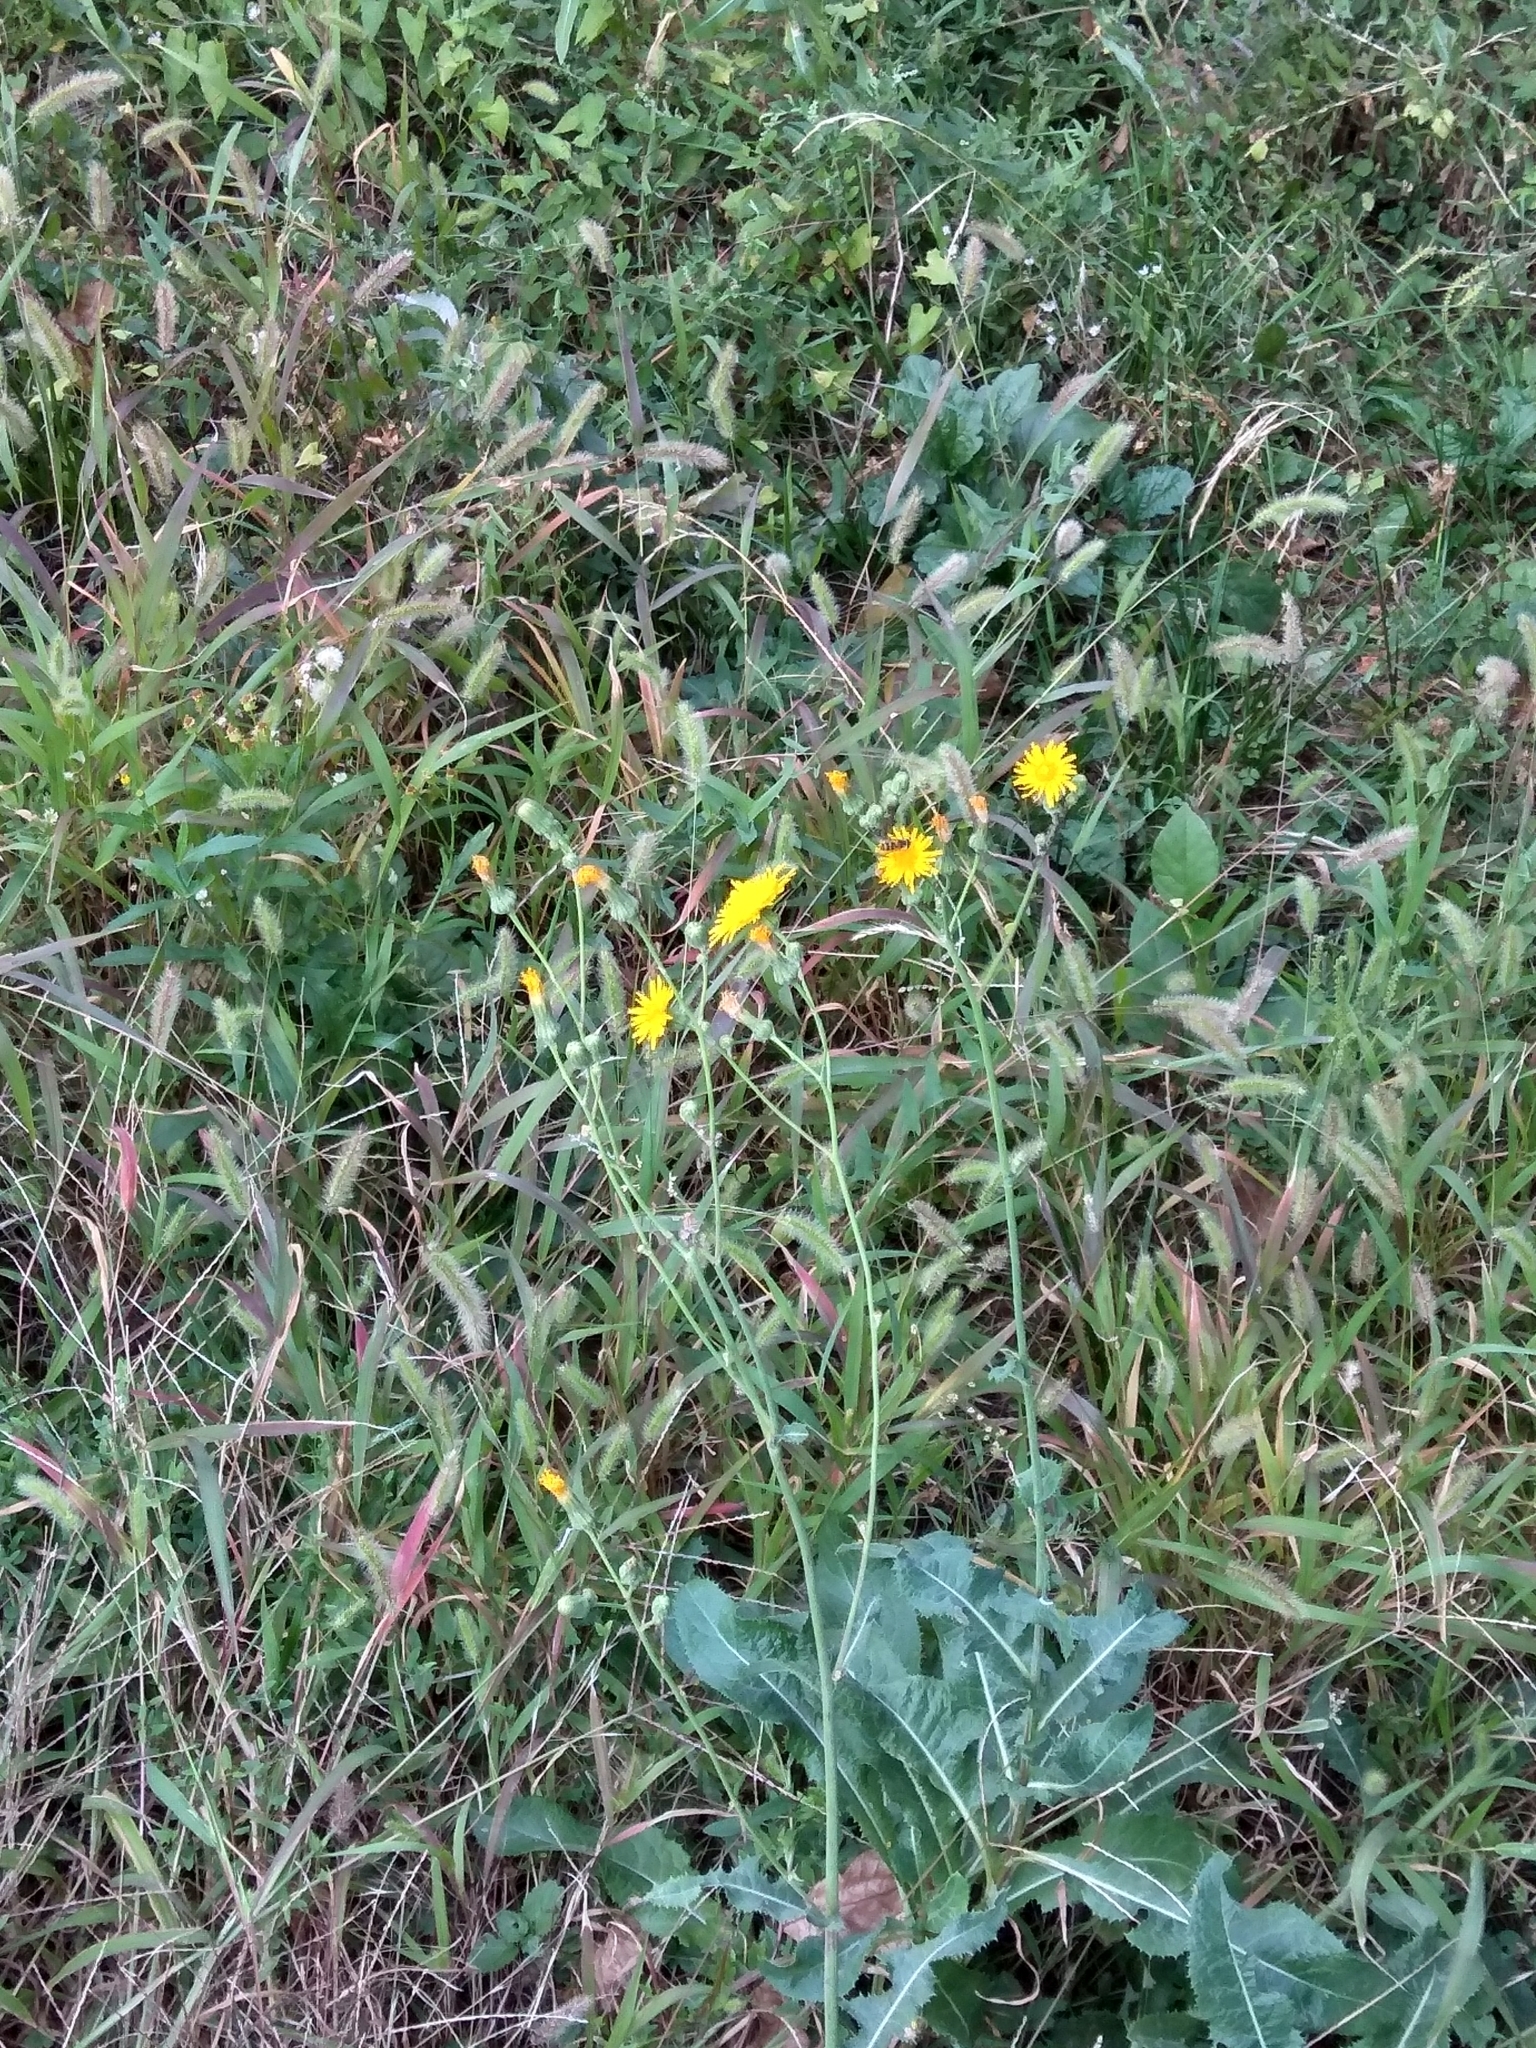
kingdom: Plantae
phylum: Tracheophyta
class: Magnoliopsida
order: Asterales
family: Asteraceae
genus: Sonchus
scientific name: Sonchus arvensis
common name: Perennial sow-thistle
